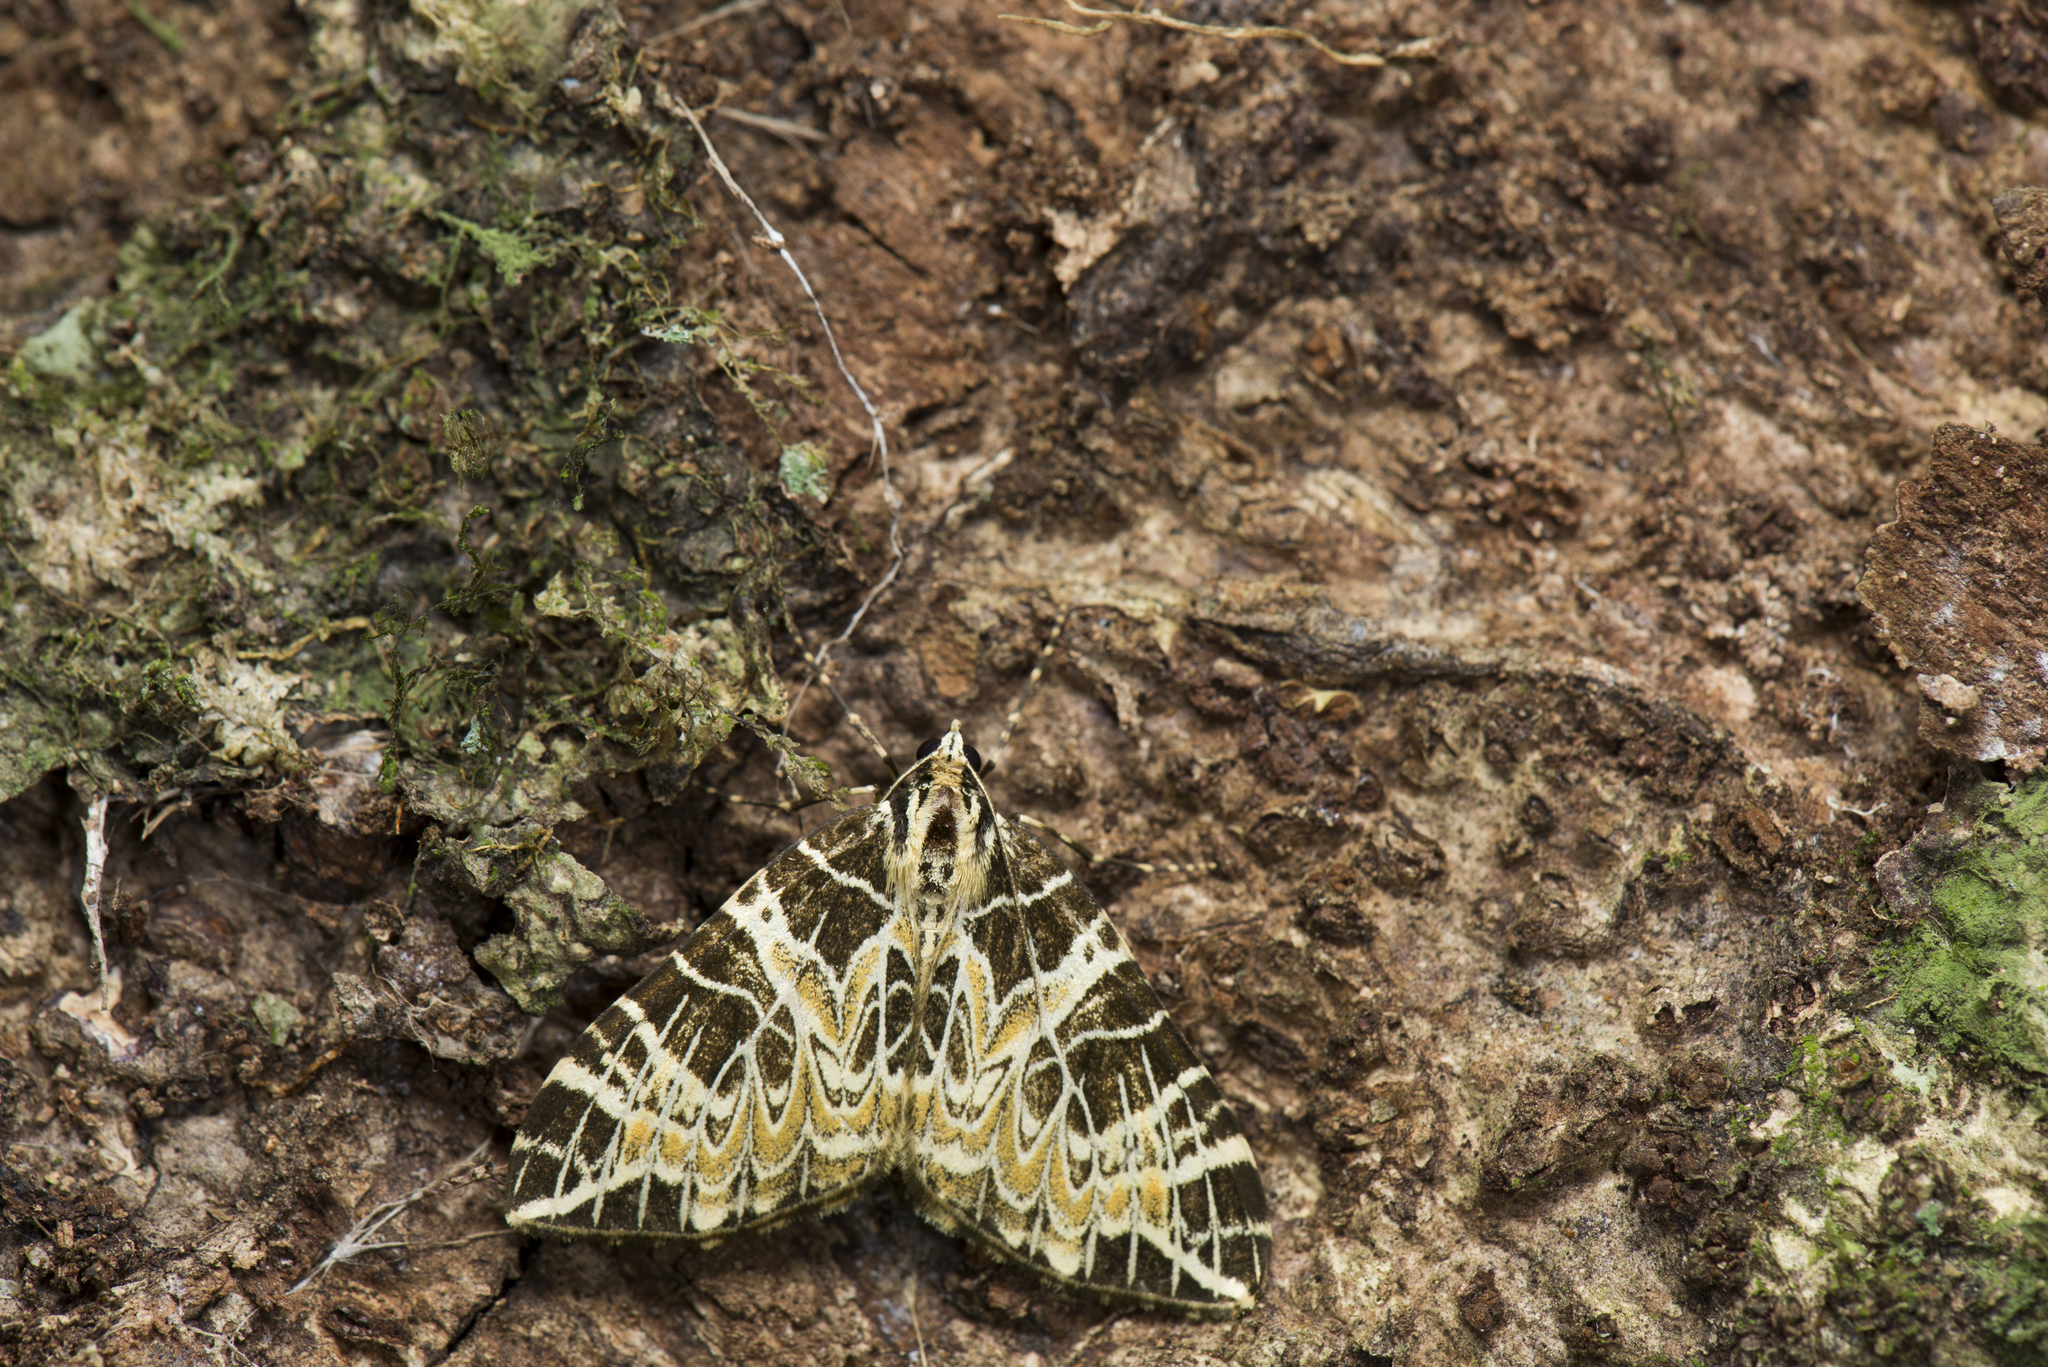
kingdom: Animalia
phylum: Arthropoda
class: Insecta
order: Lepidoptera
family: Geometridae
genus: Eustroma
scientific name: Eustroma changi
